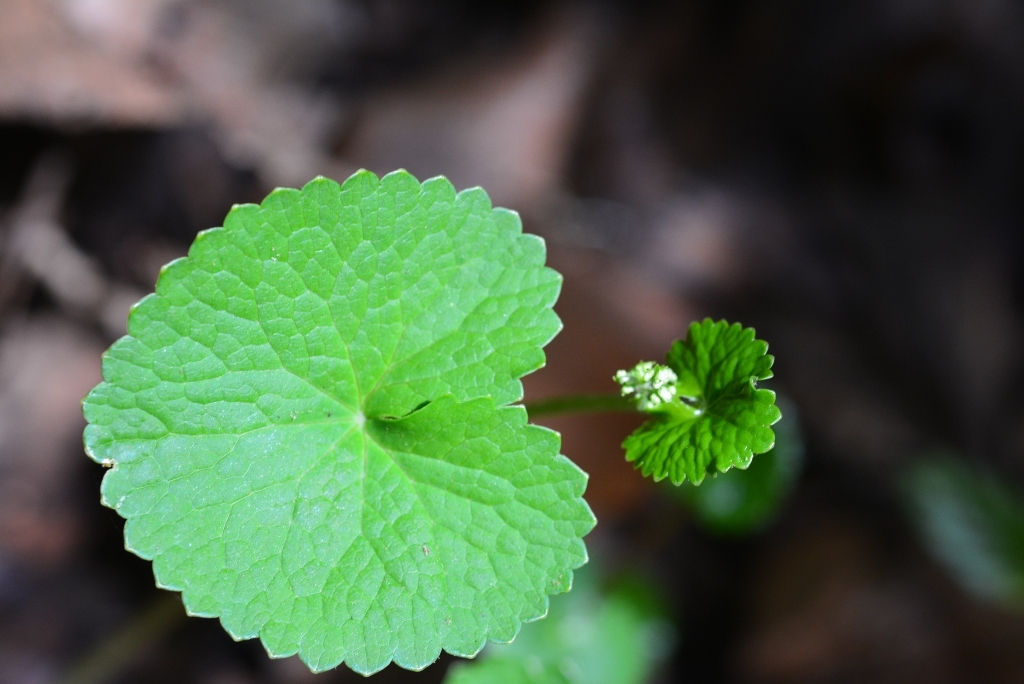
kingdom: Plantae
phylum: Tracheophyta
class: Magnoliopsida
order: Apiales
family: Apiaceae
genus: Micropleura
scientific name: Micropleura renifolia
